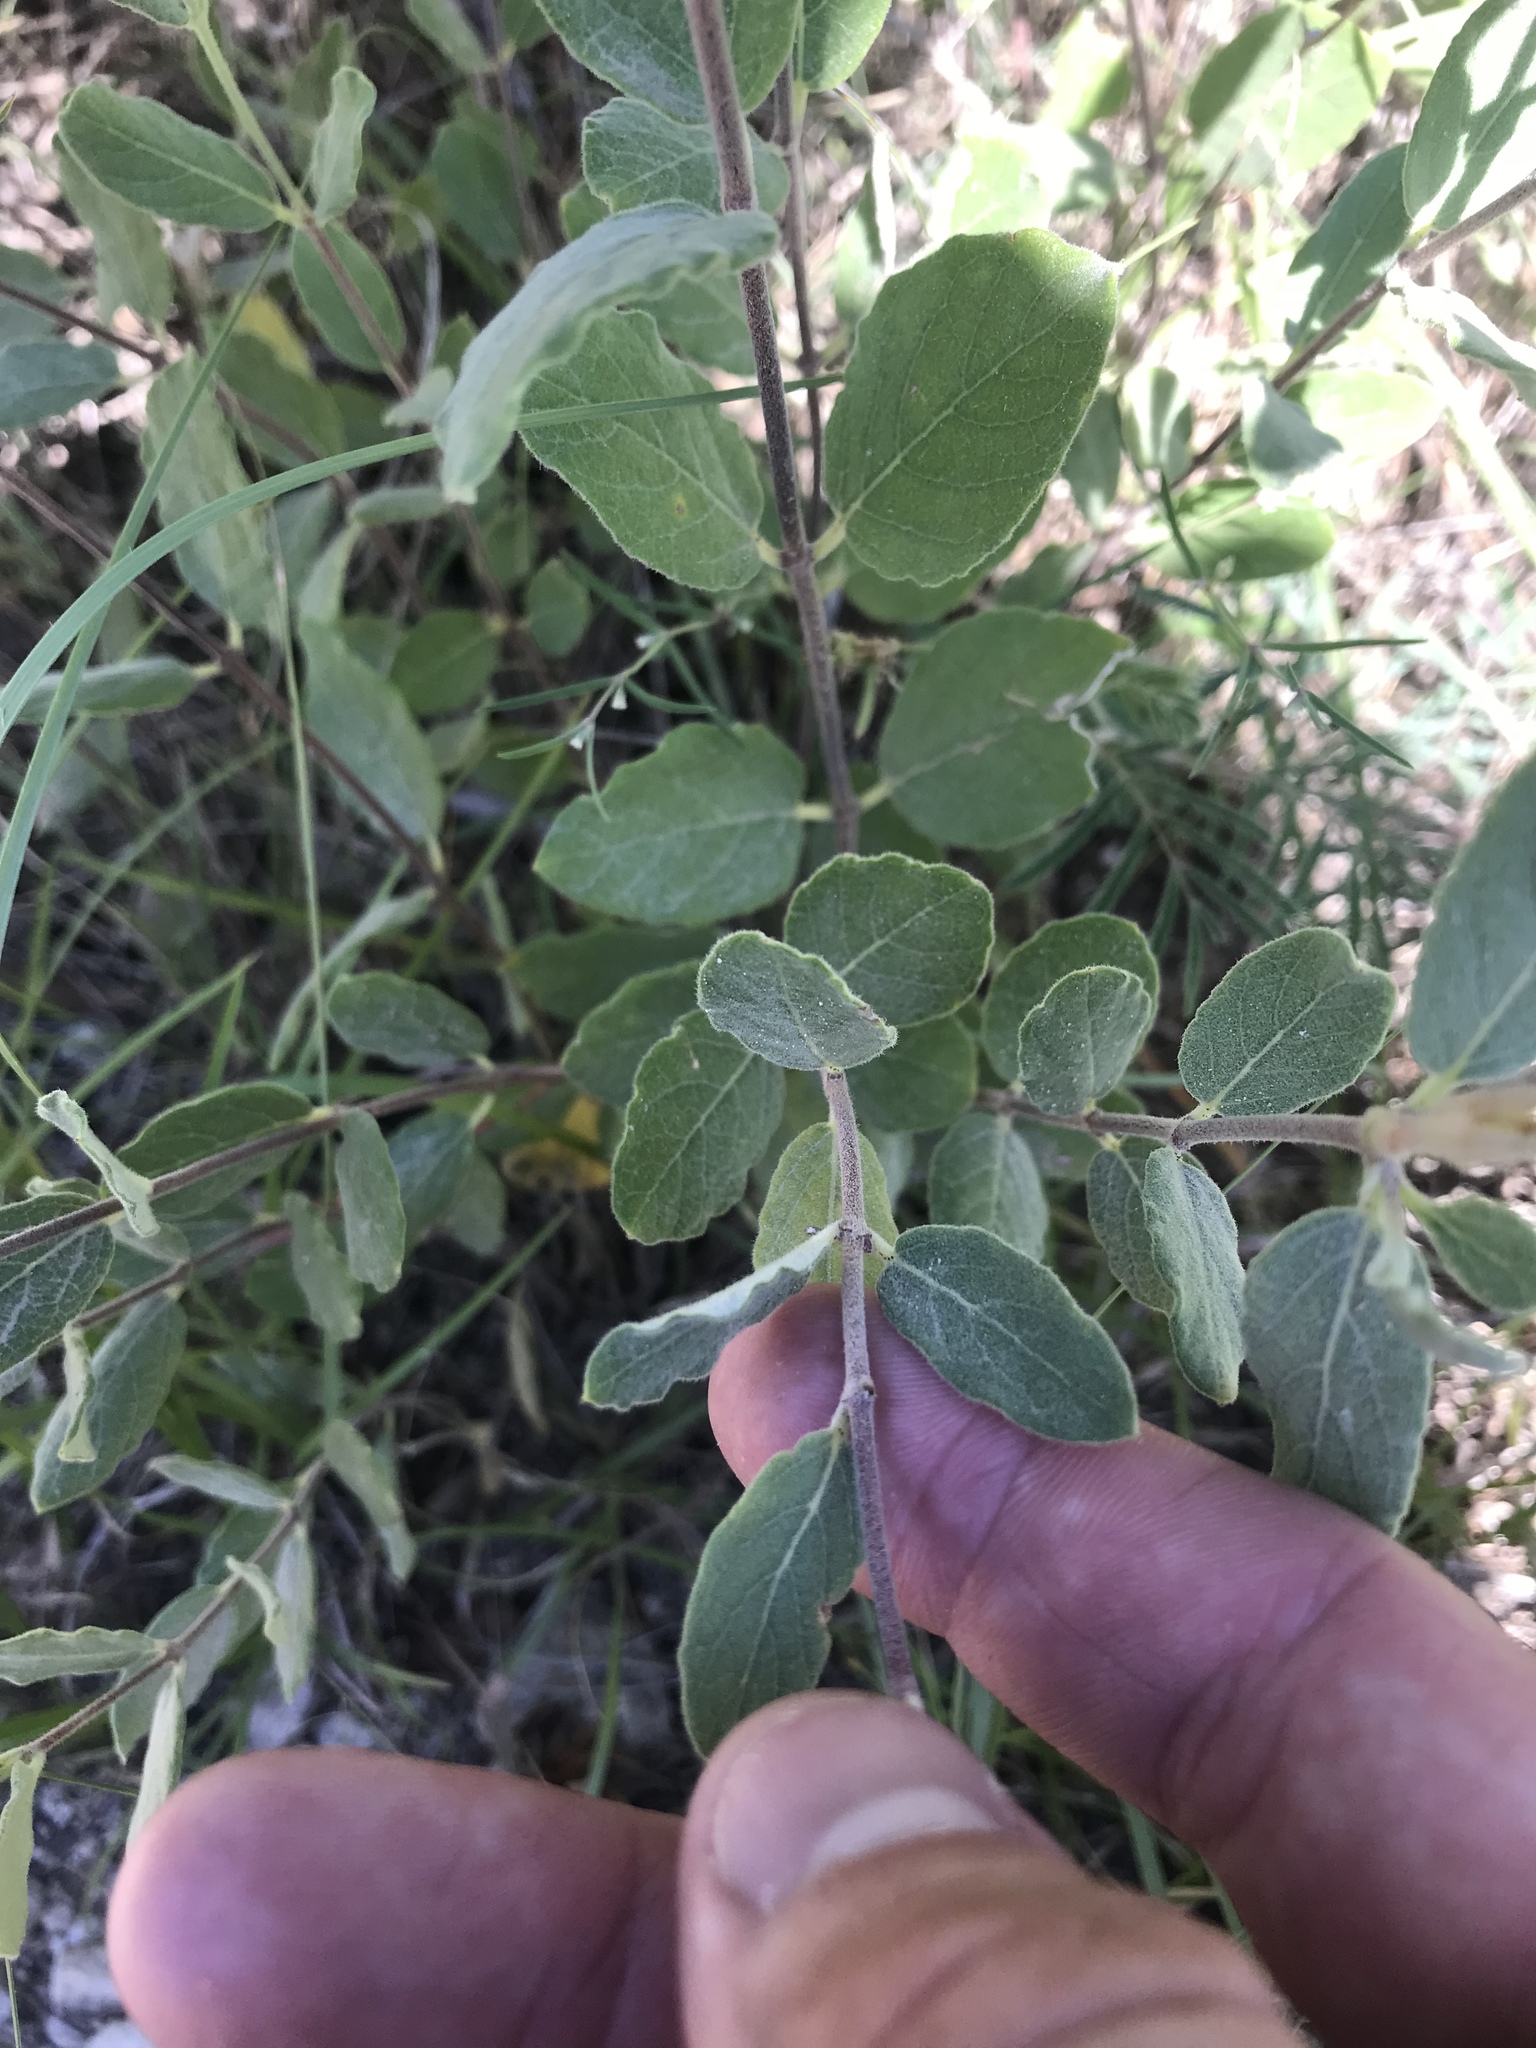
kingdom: Plantae
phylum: Tracheophyta
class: Magnoliopsida
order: Gentianales
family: Apocynaceae
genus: Mandevilla
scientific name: Mandevilla macrosiphon
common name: Plateau rocktrumpet
